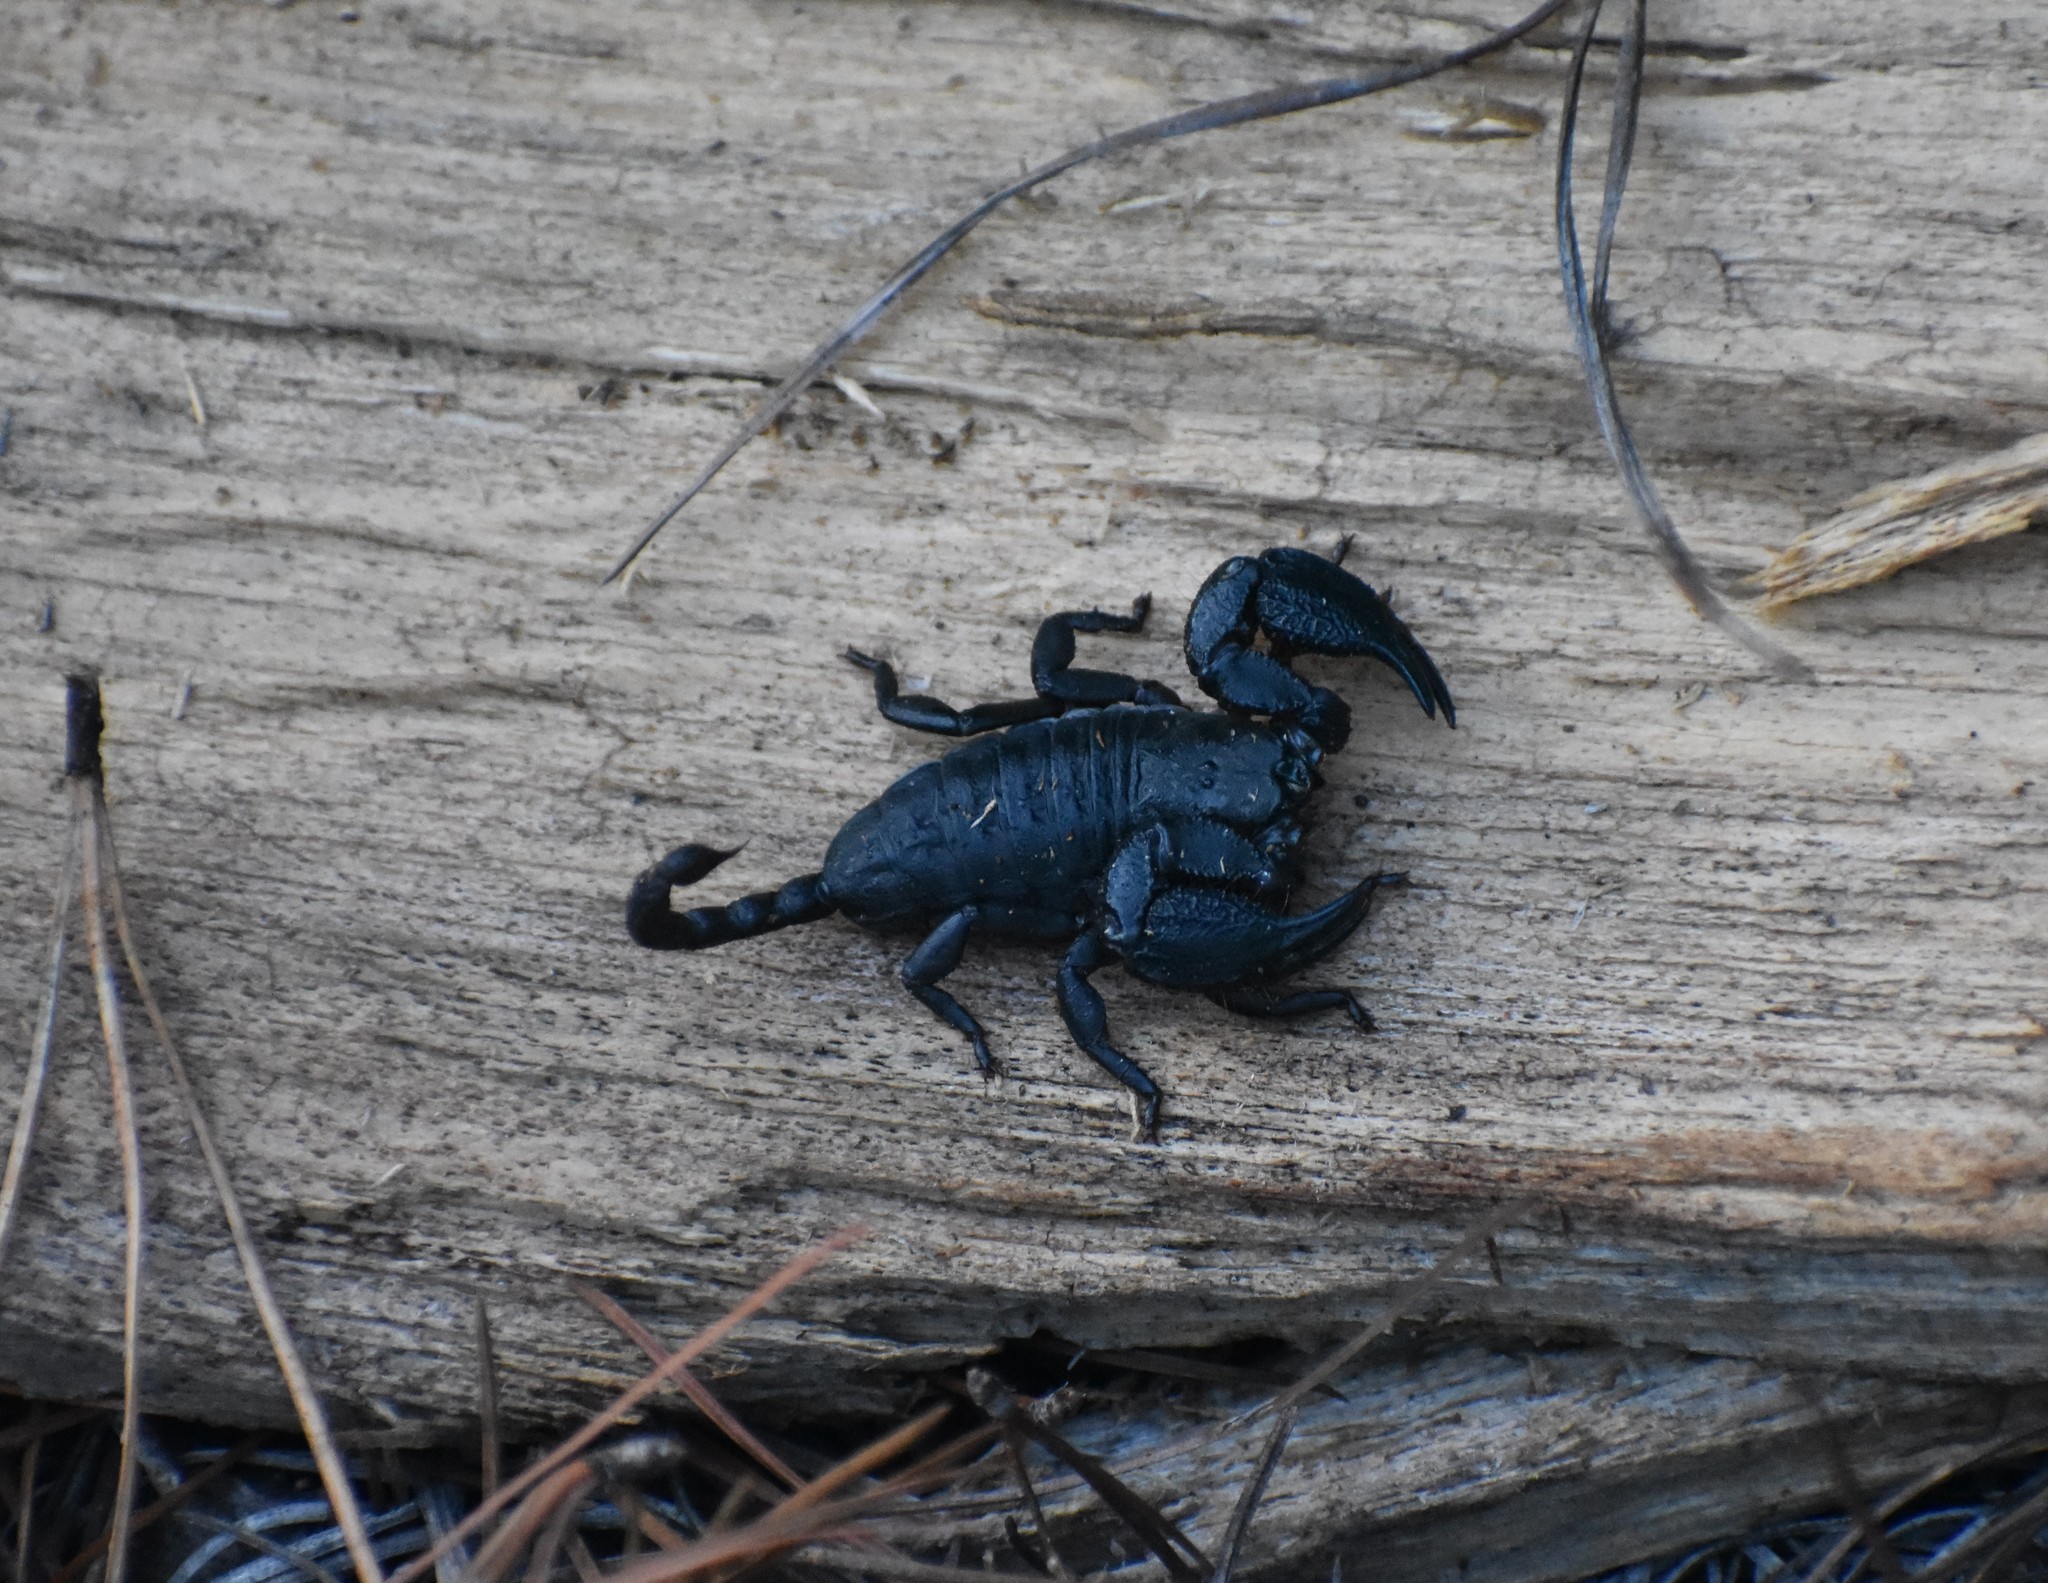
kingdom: Animalia
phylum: Arthropoda
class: Arachnida
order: Scorpiones
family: Hormuridae
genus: Opisthacanthus
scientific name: Opisthacanthus capensis
